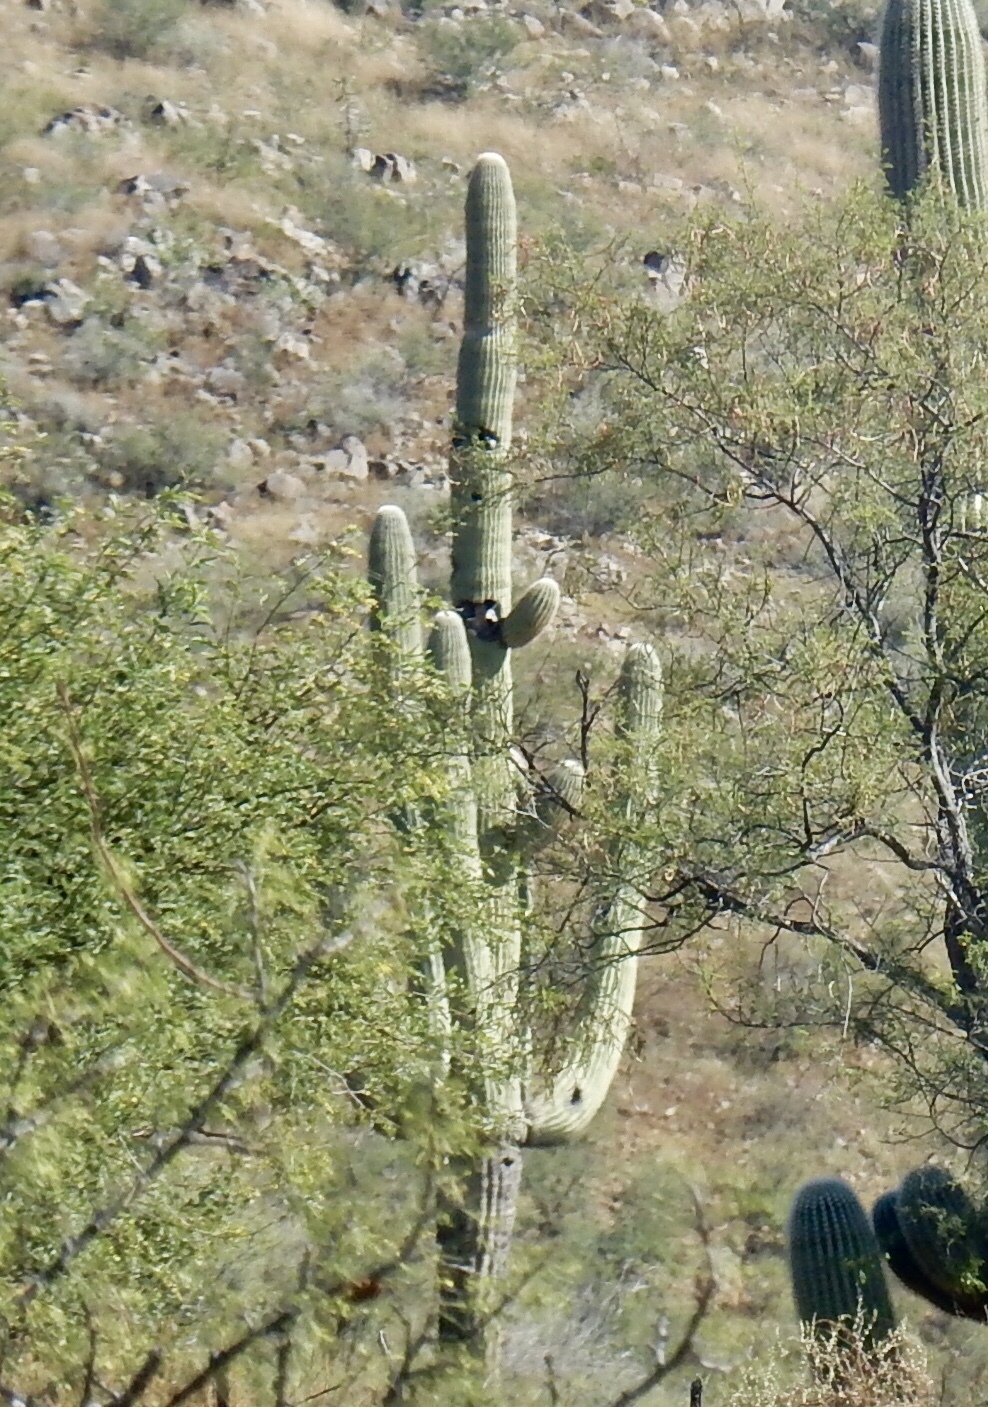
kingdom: Plantae
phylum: Tracheophyta
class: Magnoliopsida
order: Caryophyllales
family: Cactaceae
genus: Carnegiea
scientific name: Carnegiea gigantea
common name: Saguaro
